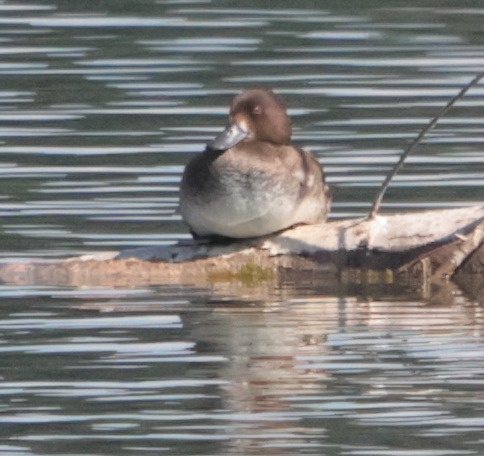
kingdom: Animalia
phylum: Chordata
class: Aves
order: Anseriformes
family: Anatidae
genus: Aythya
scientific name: Aythya fuligula
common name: Tufted duck
